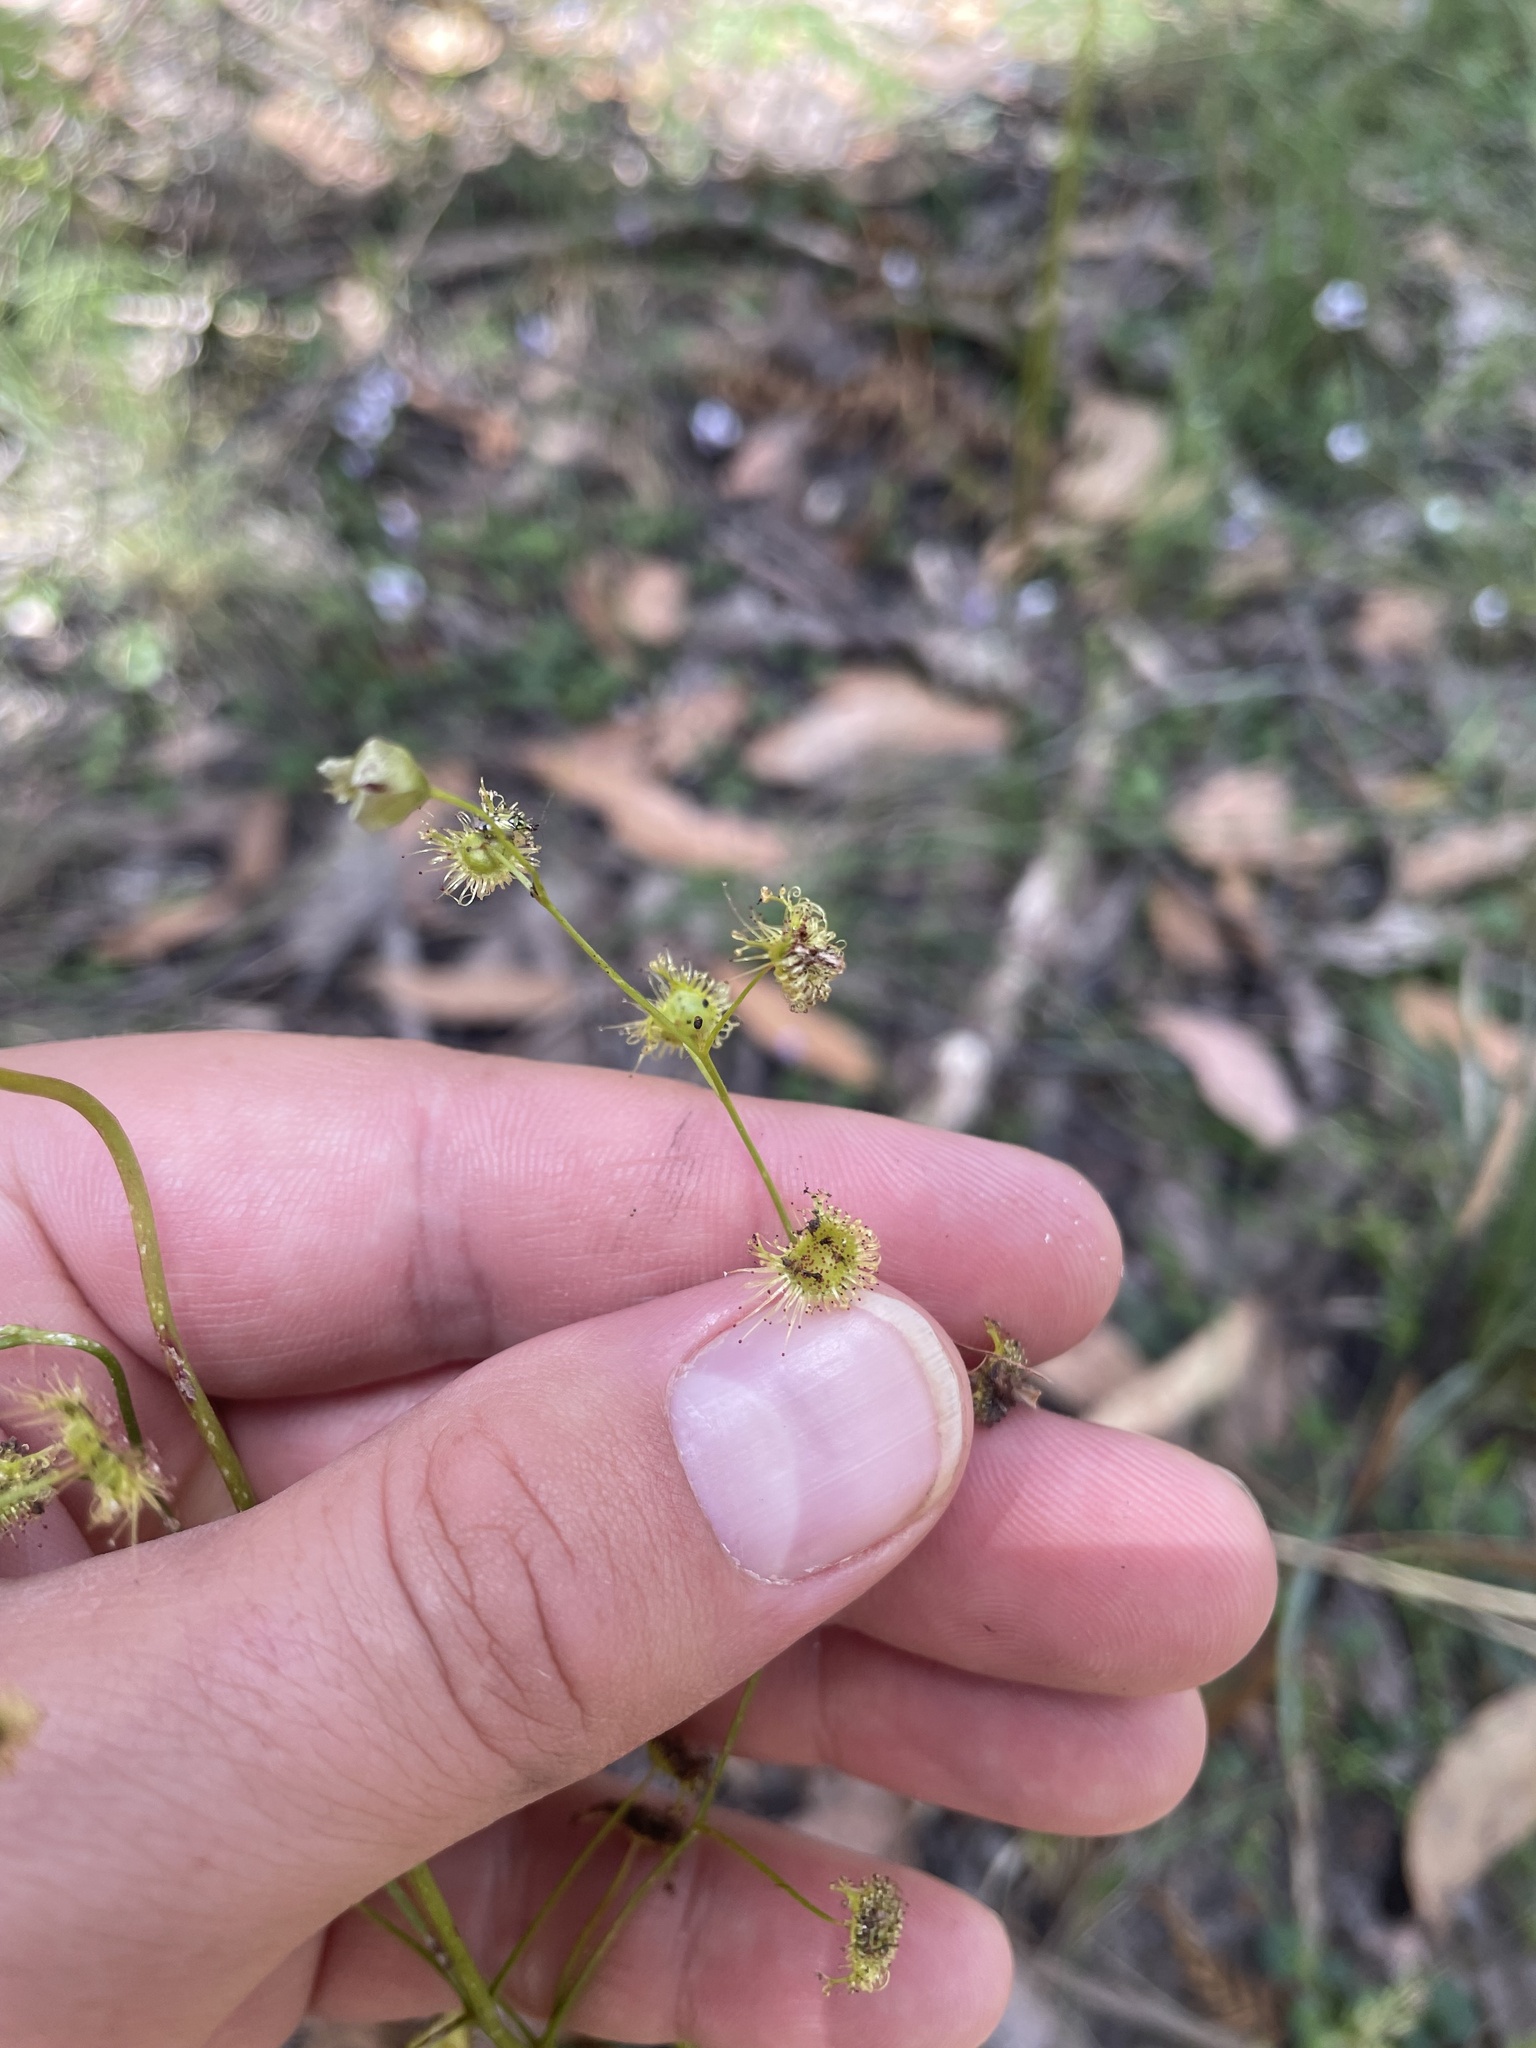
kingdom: Plantae
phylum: Tracheophyta
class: Magnoliopsida
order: Caryophyllales
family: Droseraceae
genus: Drosera
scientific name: Drosera peltata
